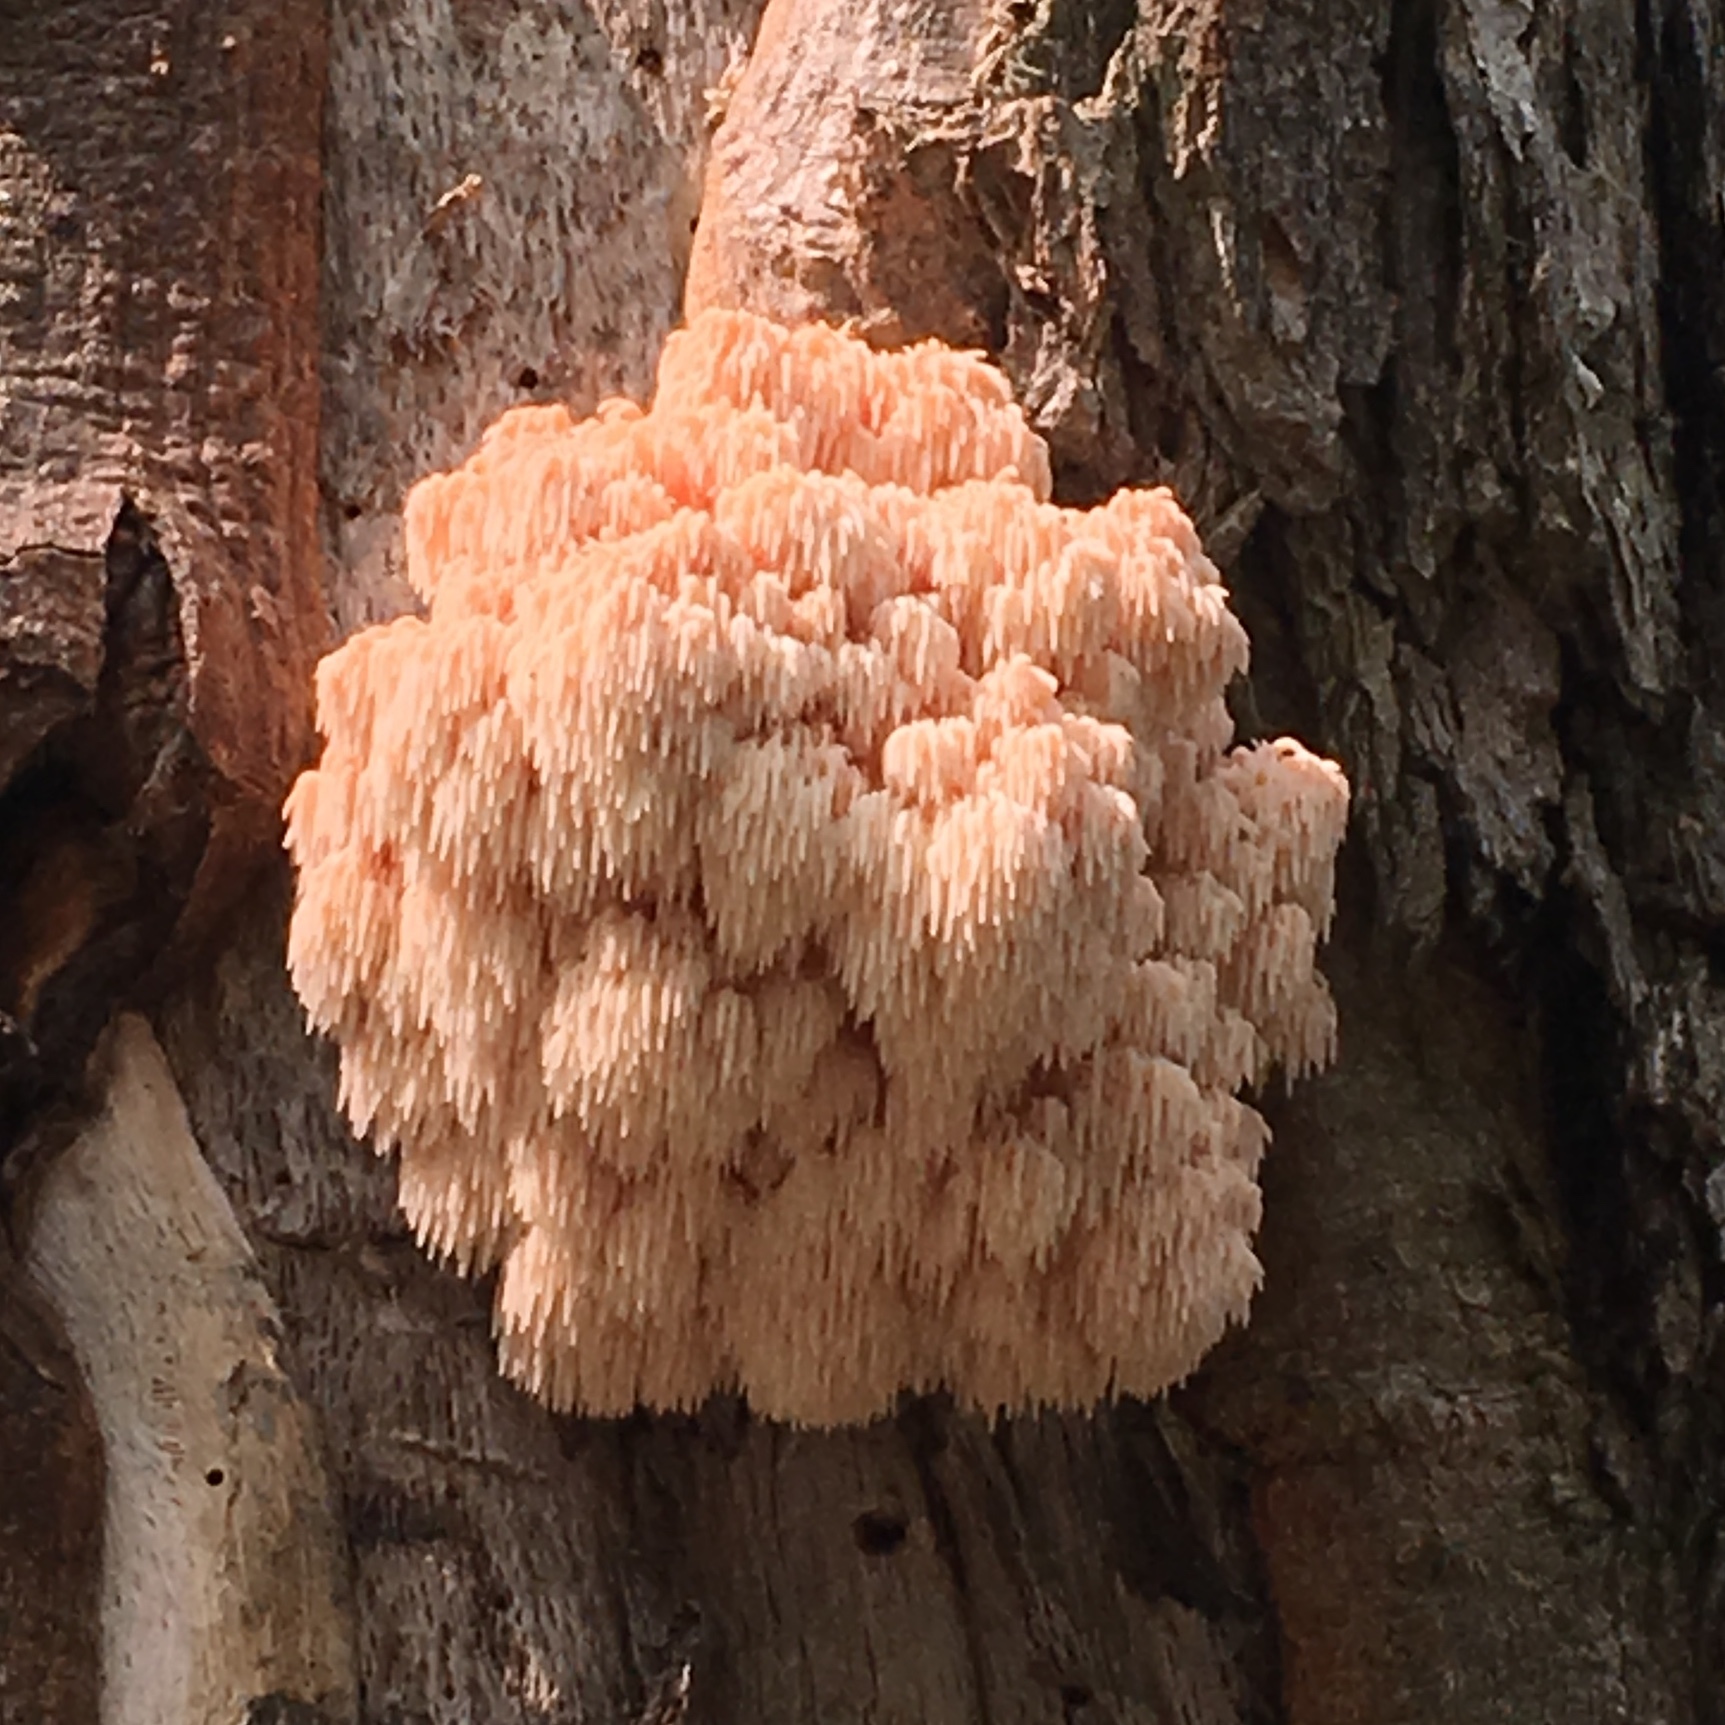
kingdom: Fungi
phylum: Basidiomycota
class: Agaricomycetes
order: Russulales
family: Hericiaceae
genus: Hericium
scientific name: Hericium erinaceus
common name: Bearded tooth
